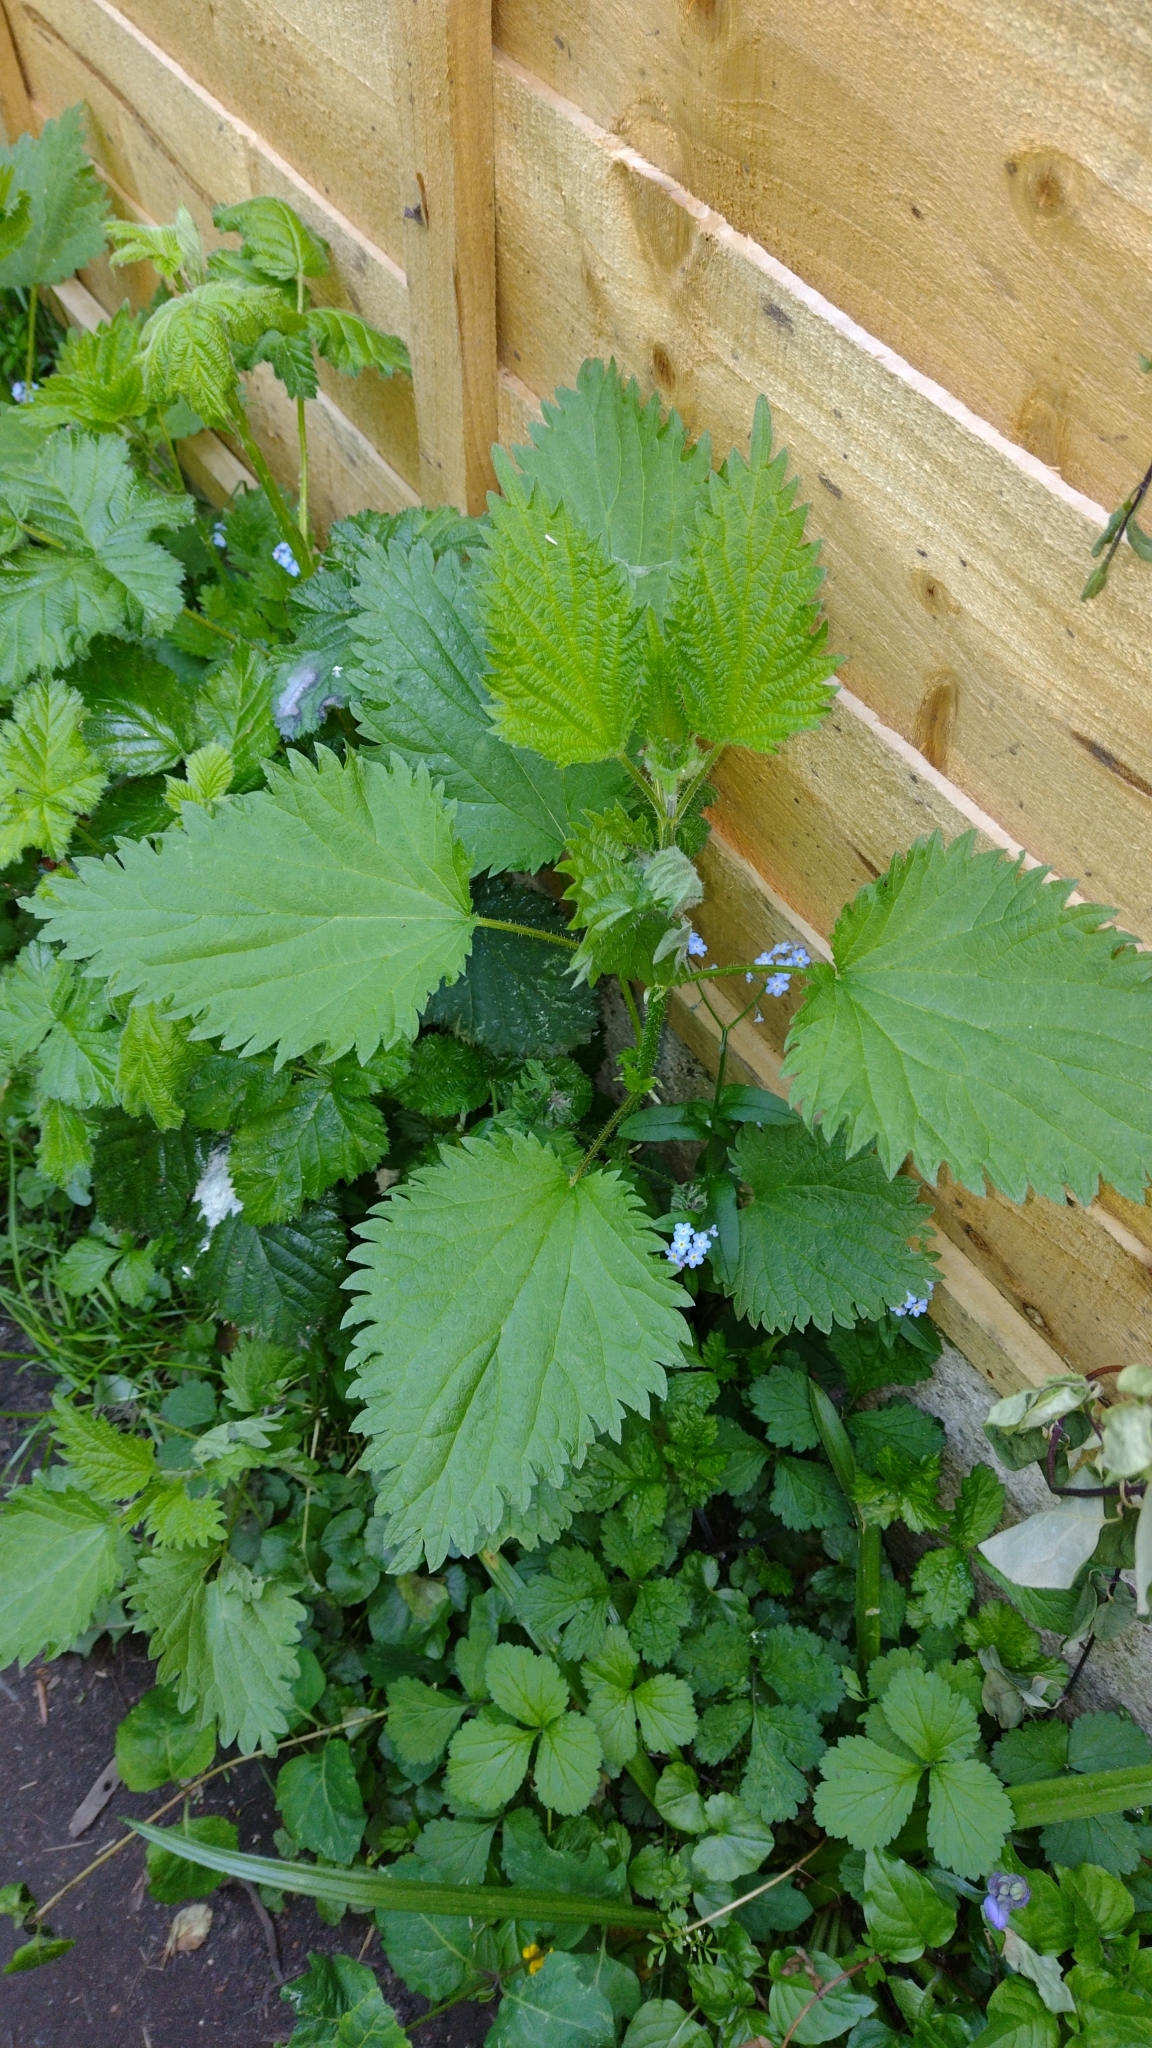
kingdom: Plantae
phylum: Tracheophyta
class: Magnoliopsida
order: Rosales
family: Urticaceae
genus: Urtica
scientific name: Urtica dioica
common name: Common nettle
